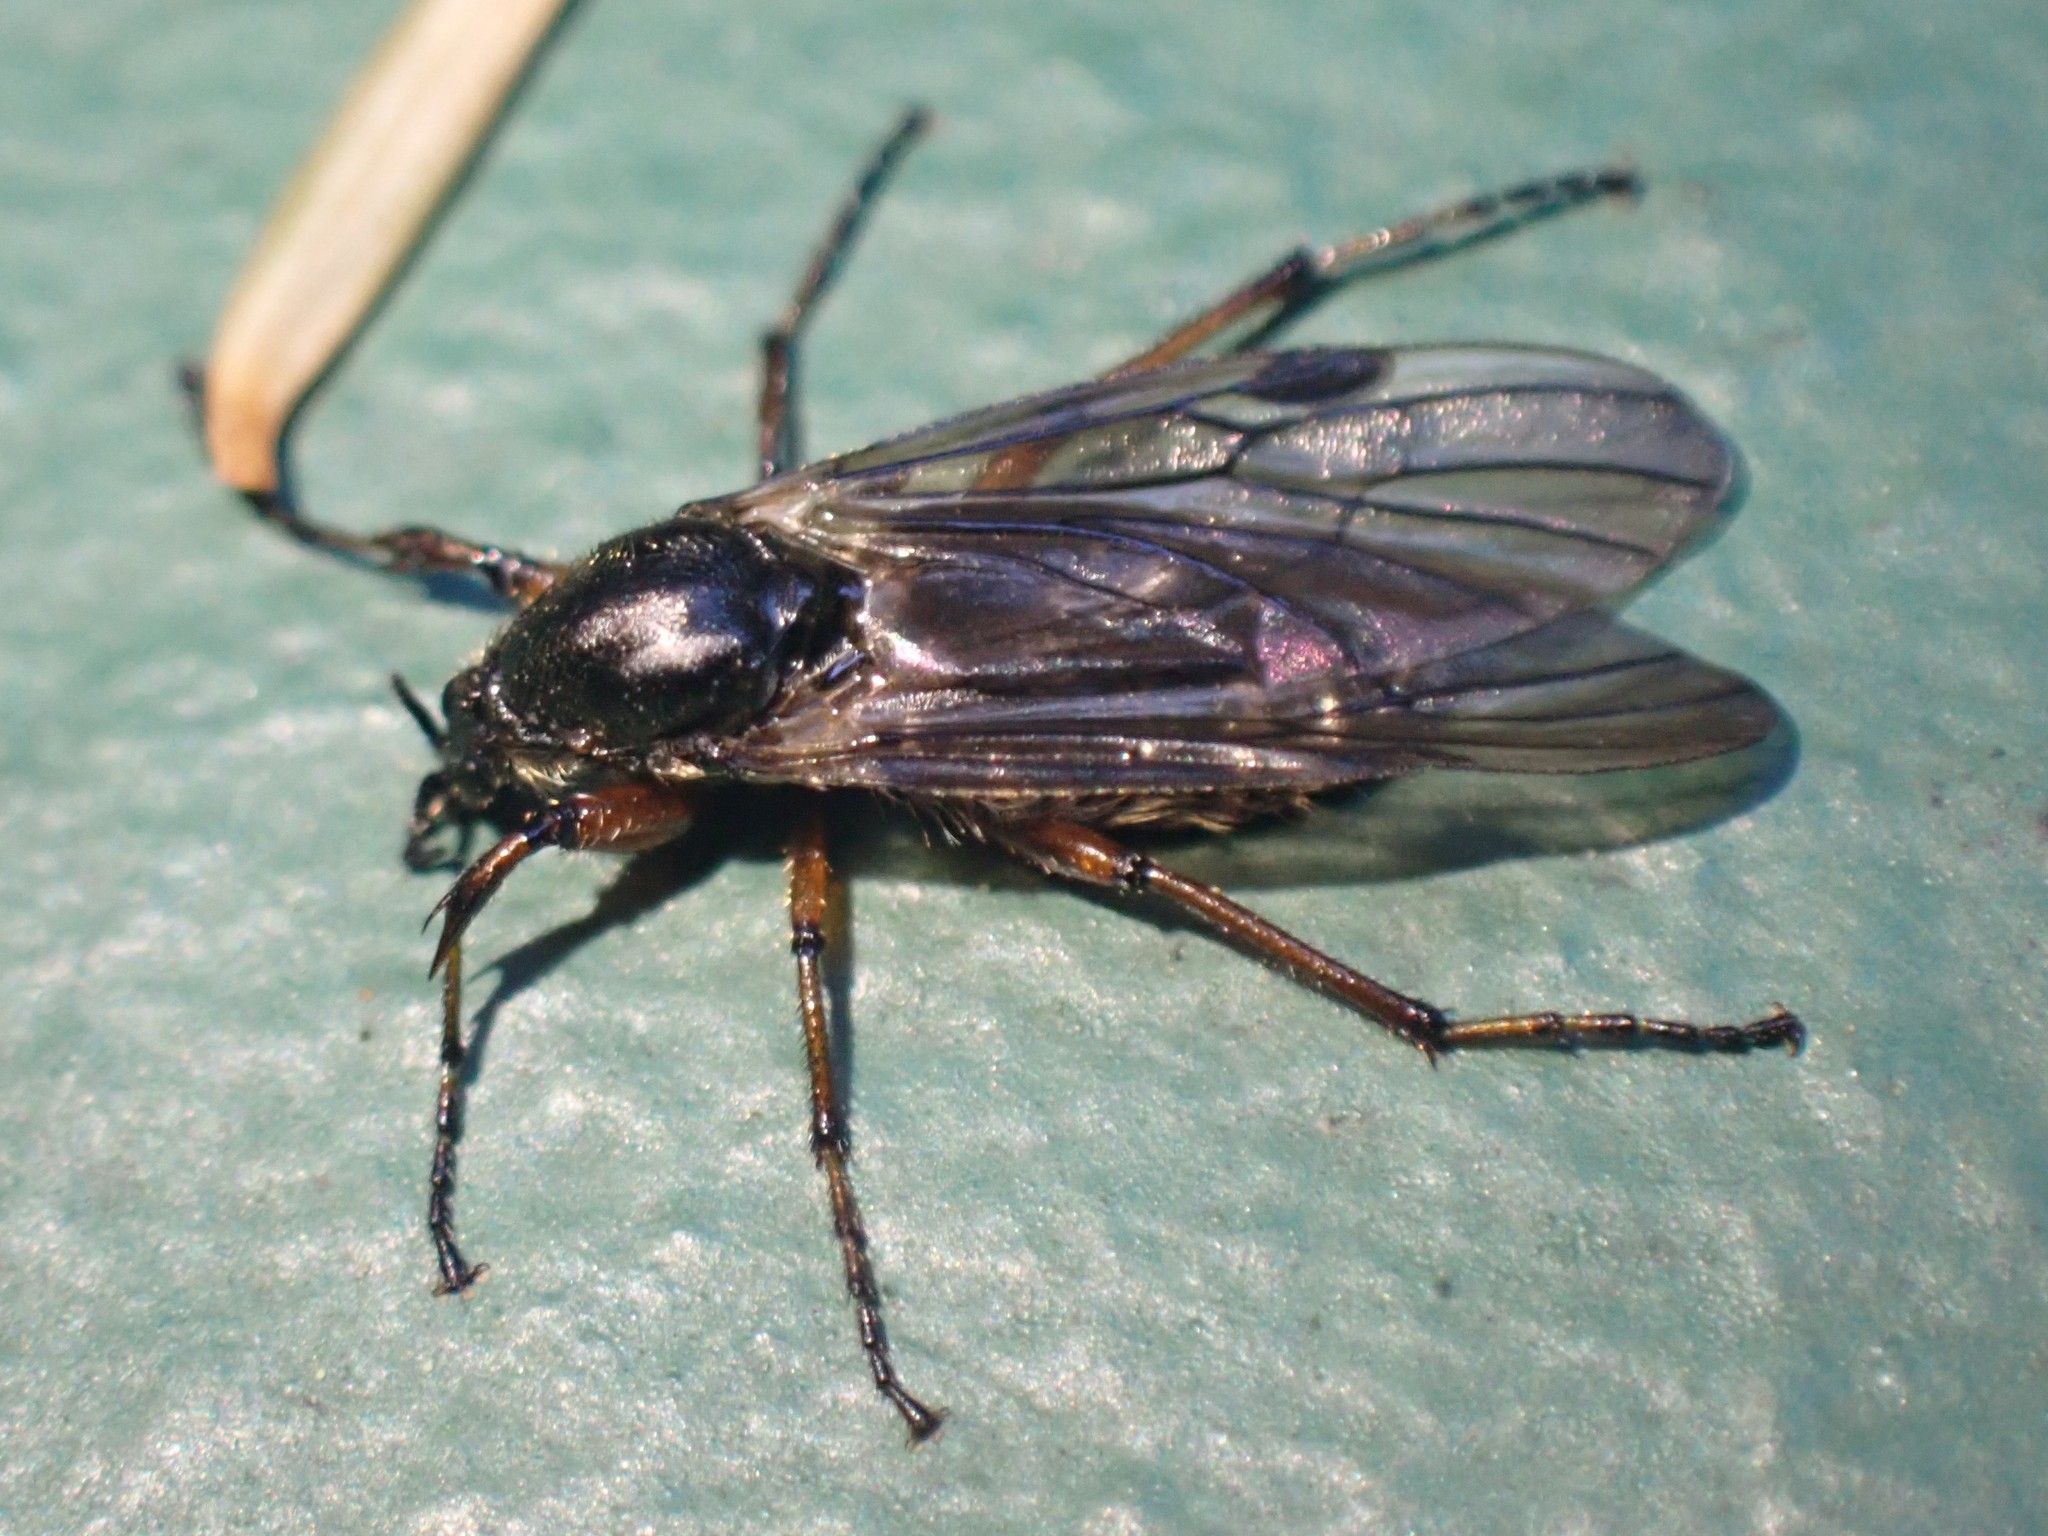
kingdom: Animalia
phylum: Arthropoda
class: Insecta
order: Diptera
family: Bibionidae
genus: Bibio
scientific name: Bibio
